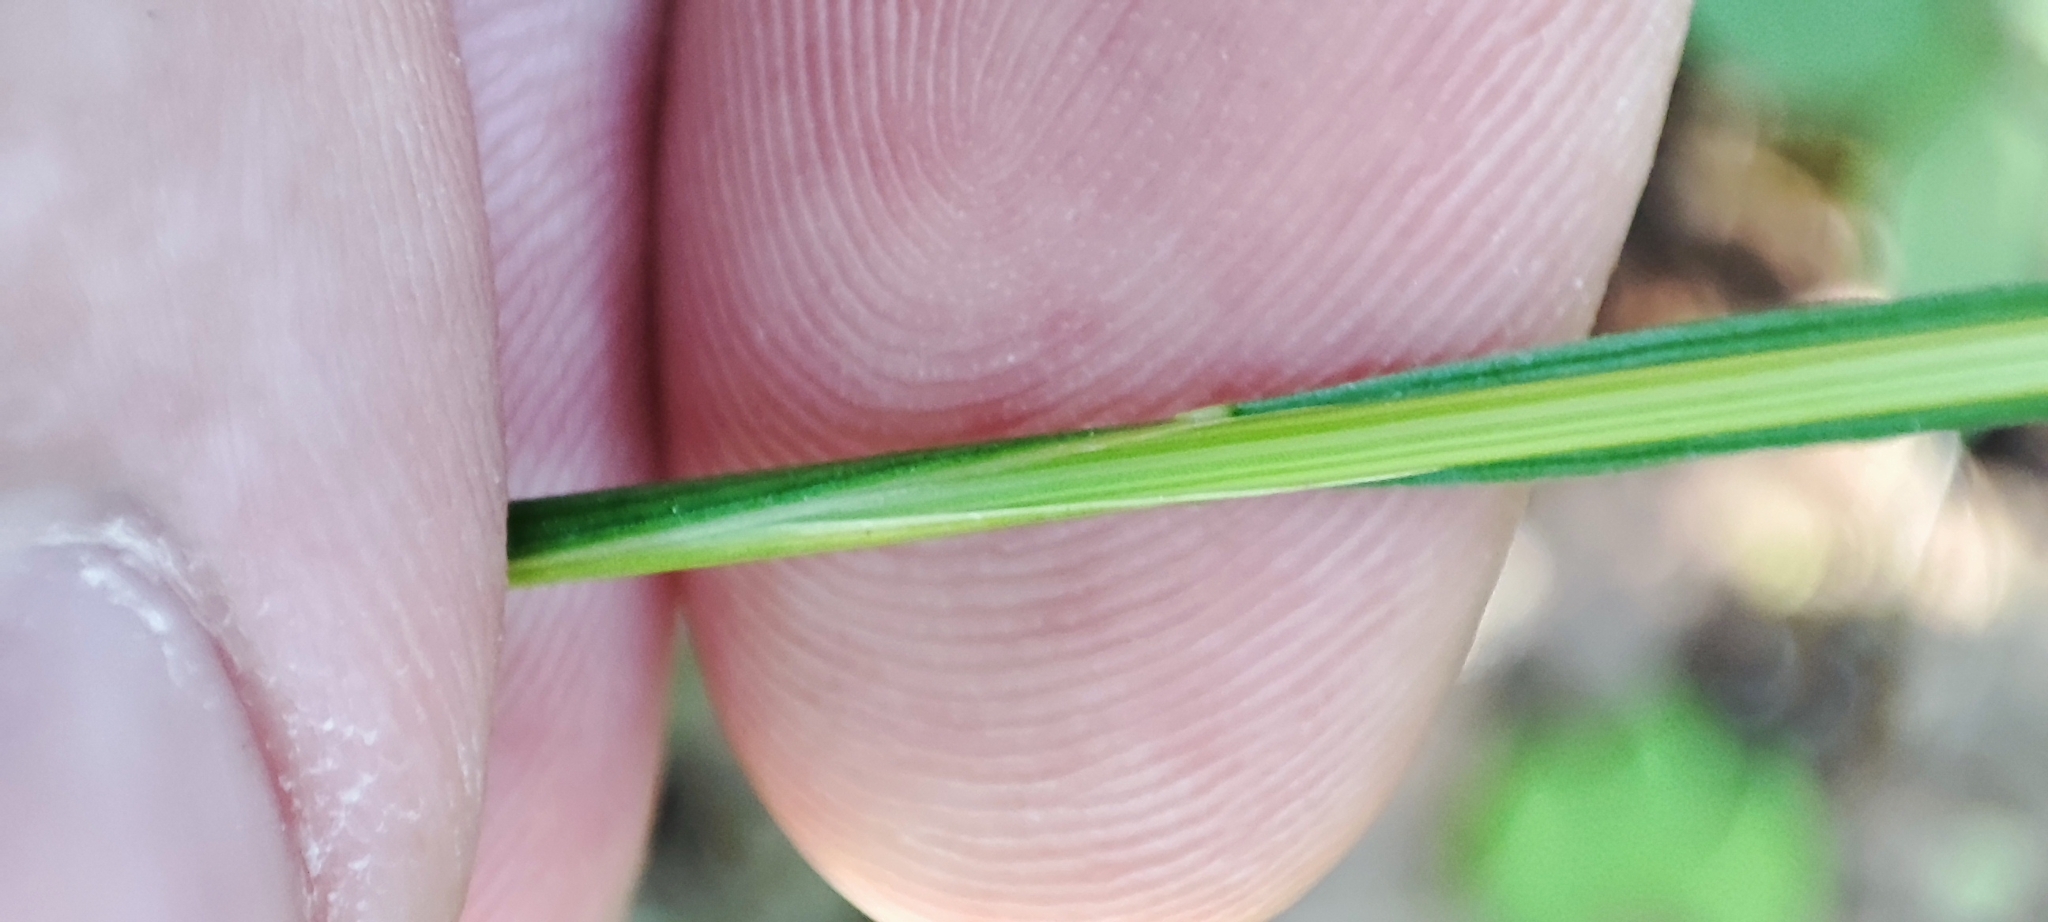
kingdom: Plantae
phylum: Tracheophyta
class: Liliopsida
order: Poales
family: Poaceae
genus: Deschampsia
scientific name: Deschampsia cespitosa
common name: Tufted hair-grass
